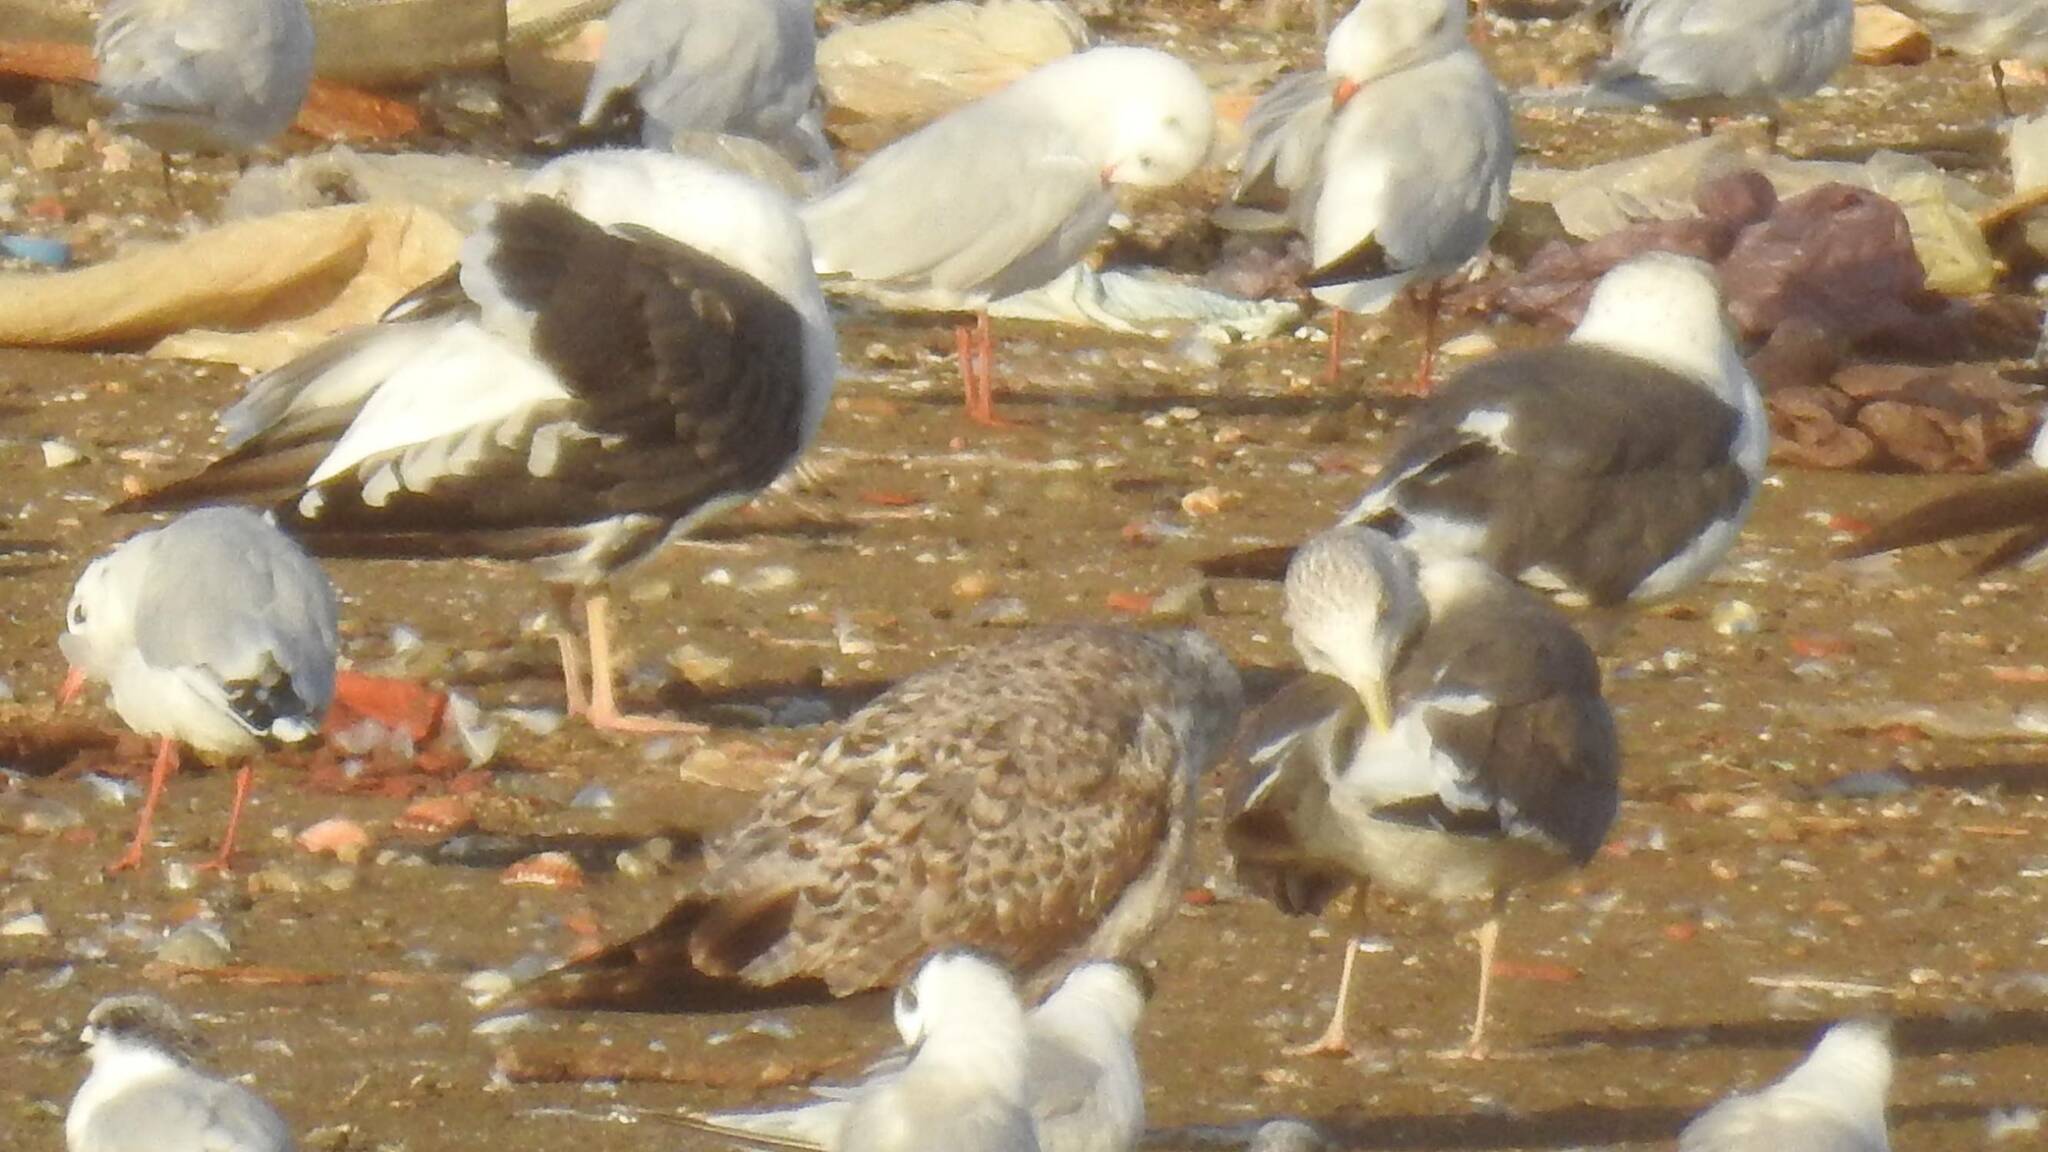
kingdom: Animalia
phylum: Chordata
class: Aves
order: Charadriiformes
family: Laridae
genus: Larus
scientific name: Larus fuscus
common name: Lesser black-backed gull
